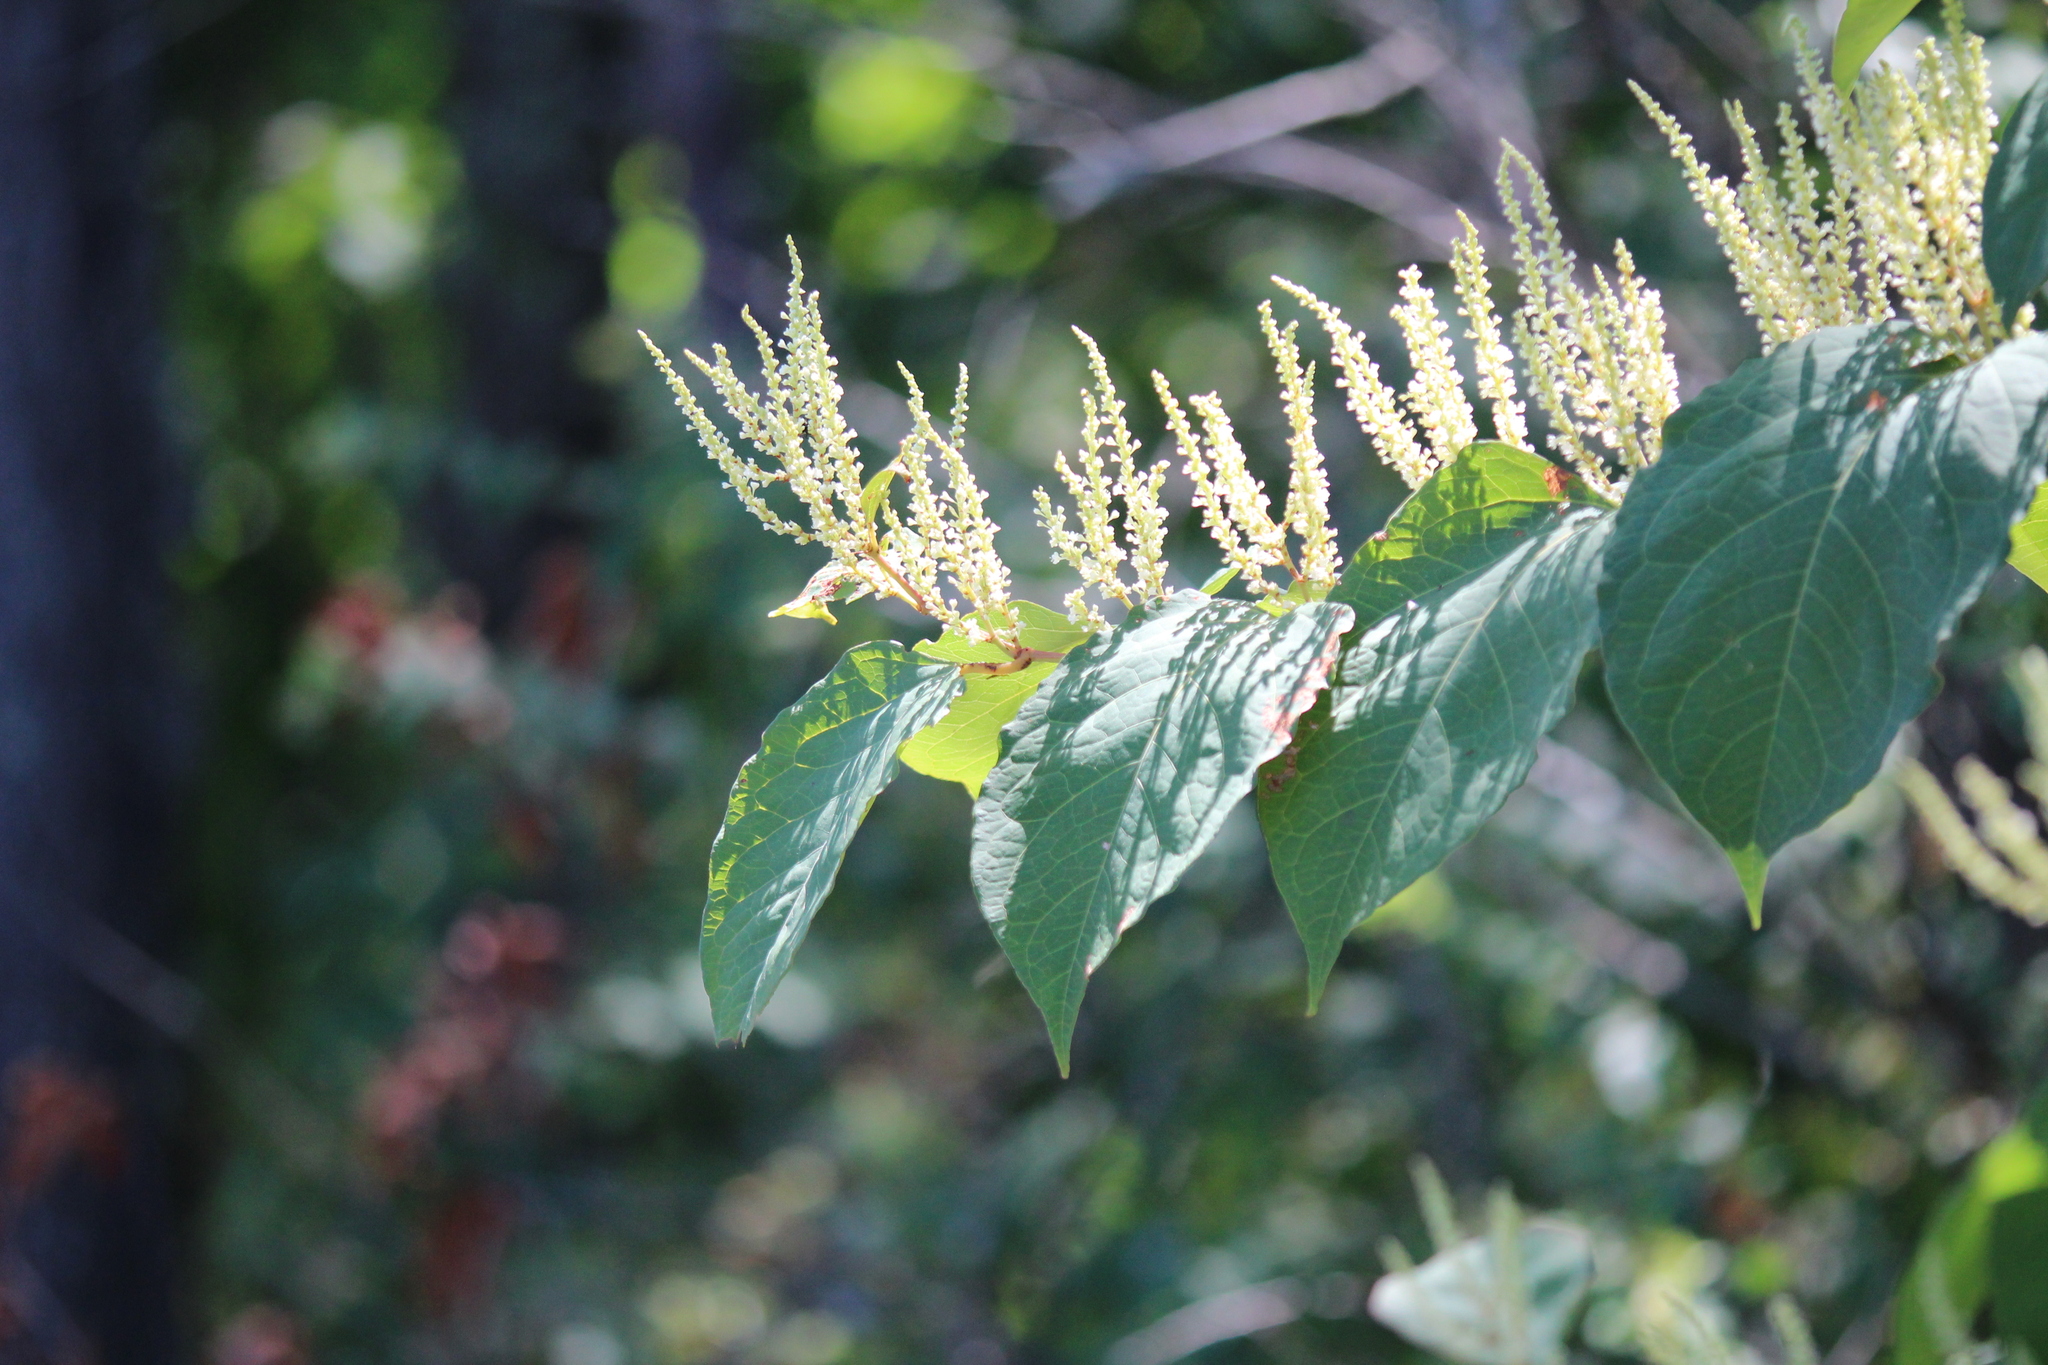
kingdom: Plantae
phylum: Tracheophyta
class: Magnoliopsida
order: Caryophyllales
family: Polygonaceae
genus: Reynoutria
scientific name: Reynoutria japonica
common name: Japanese knotweed
